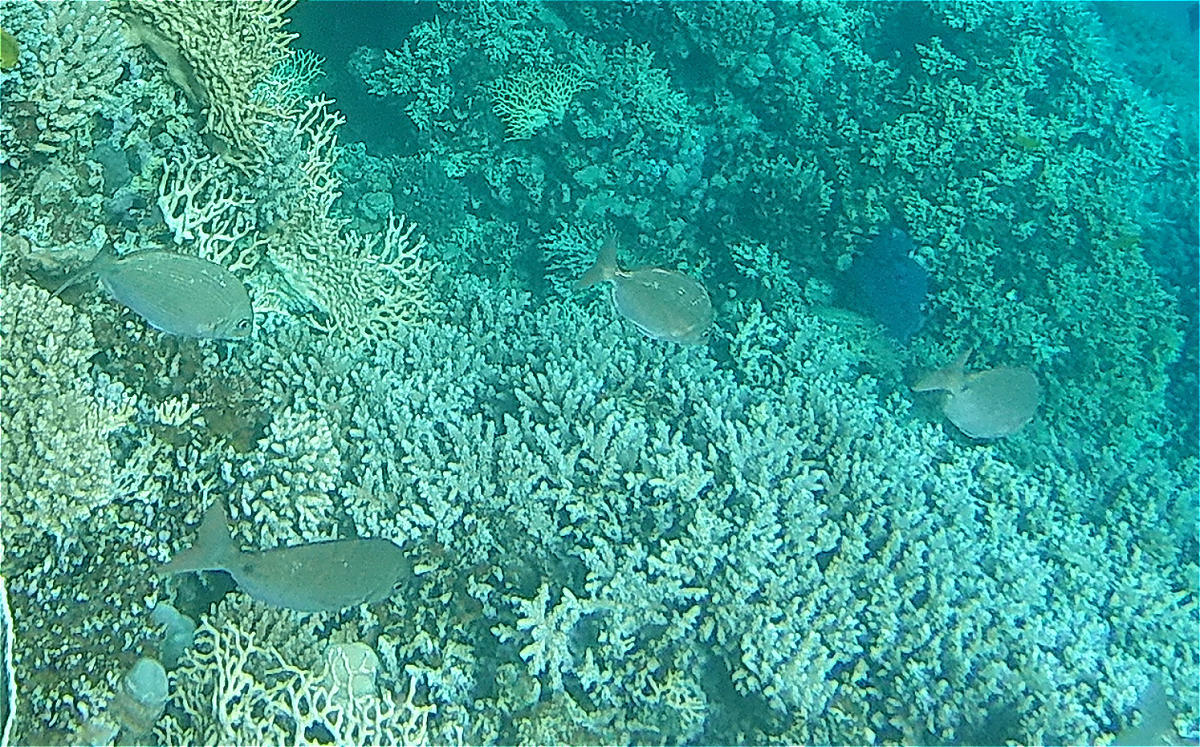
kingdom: Animalia
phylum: Chordata
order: Perciformes
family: Sparidae
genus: Diplodus
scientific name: Diplodus noct
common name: Arabian pinfish
